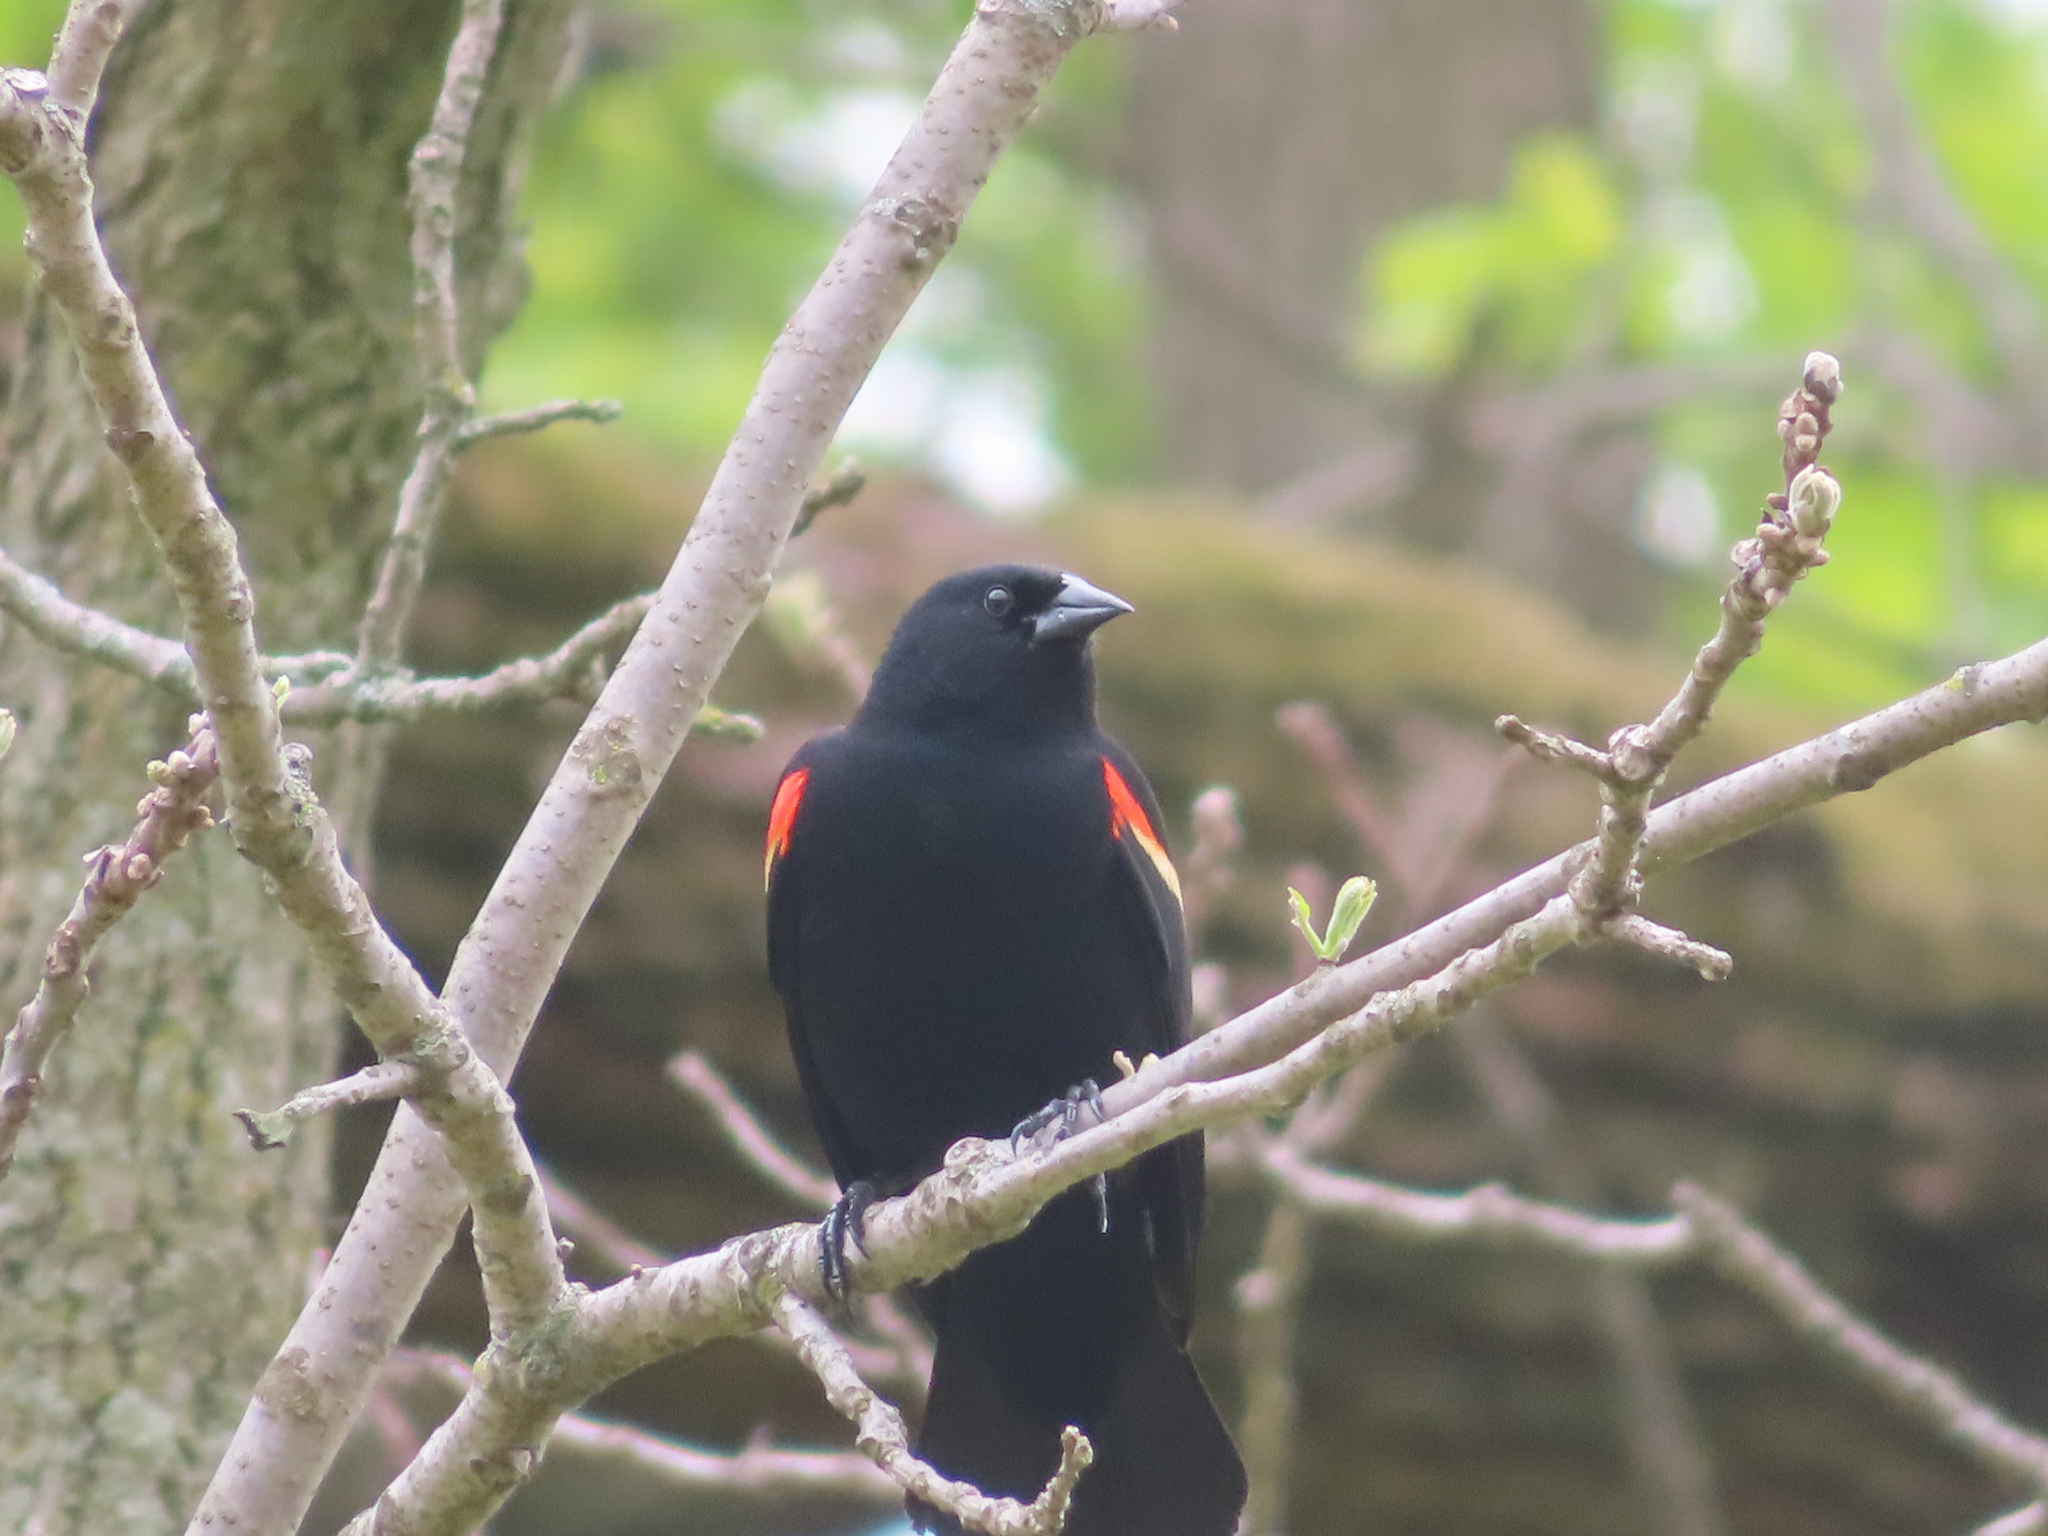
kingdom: Animalia
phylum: Chordata
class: Aves
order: Passeriformes
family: Icteridae
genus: Agelaius
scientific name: Agelaius phoeniceus
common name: Red-winged blackbird
